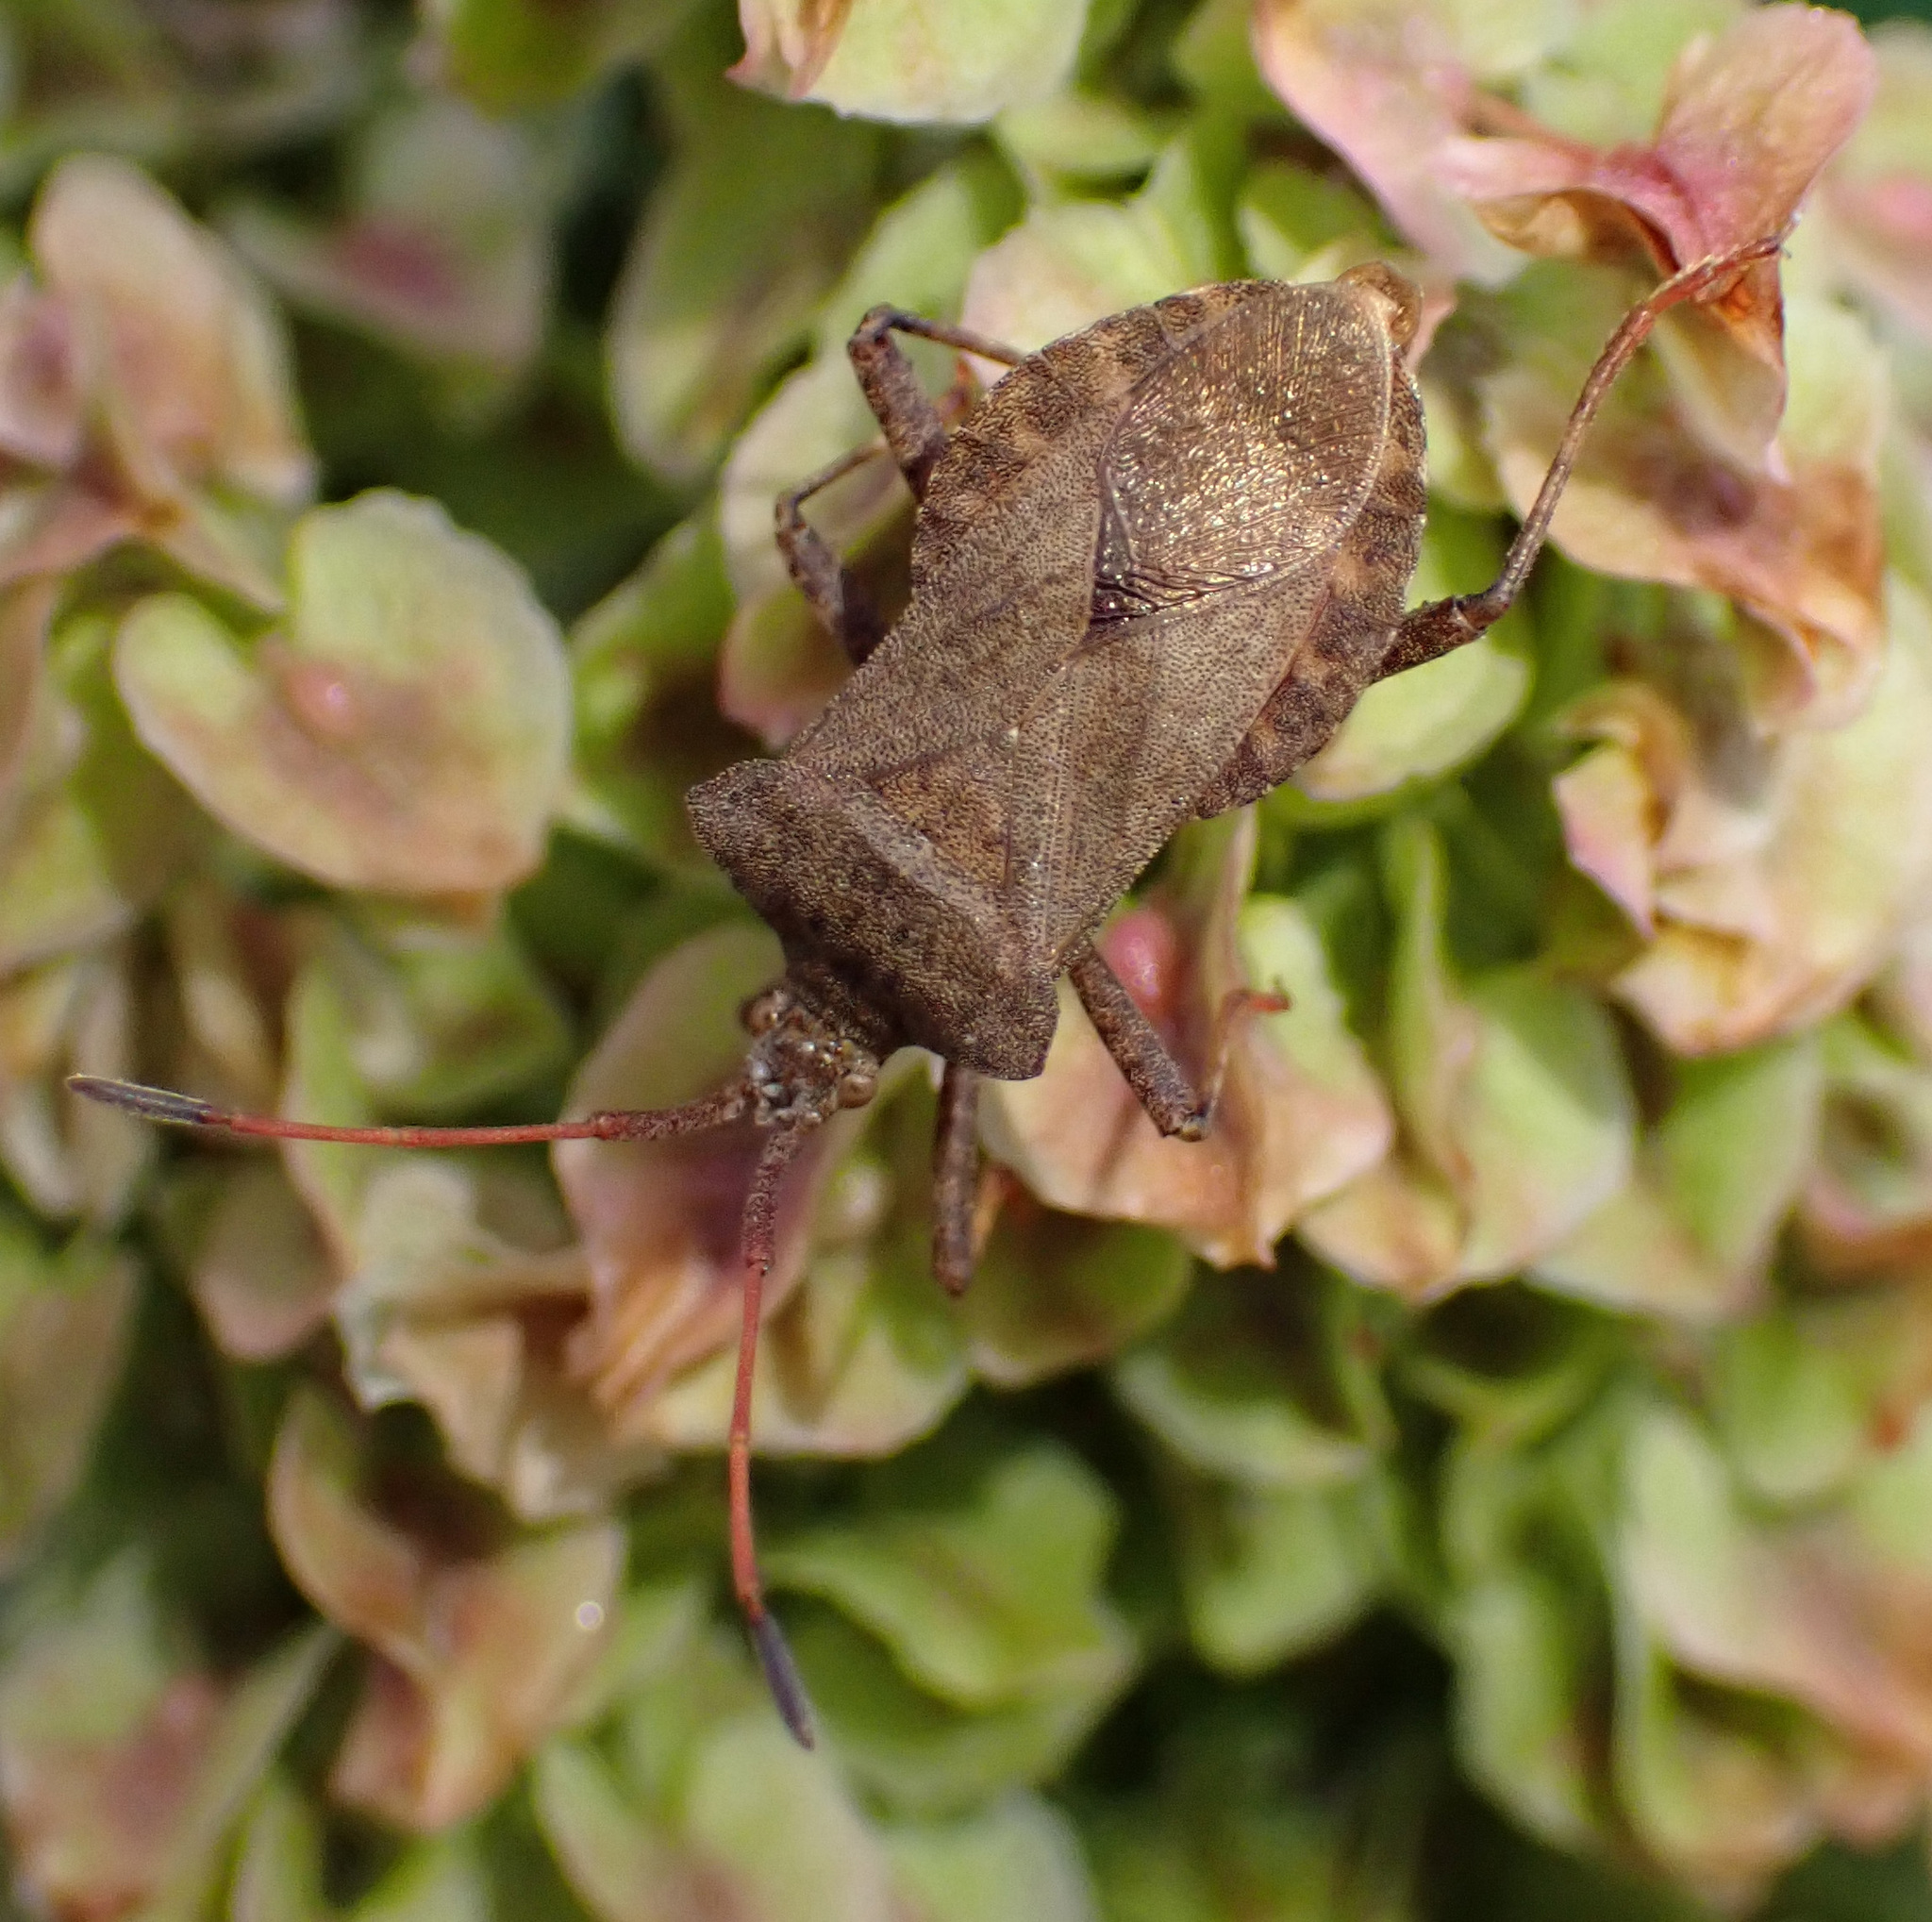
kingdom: Animalia
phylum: Arthropoda
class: Insecta
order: Hemiptera
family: Coreidae
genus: Coreus
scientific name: Coreus marginatus
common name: Dock bug
